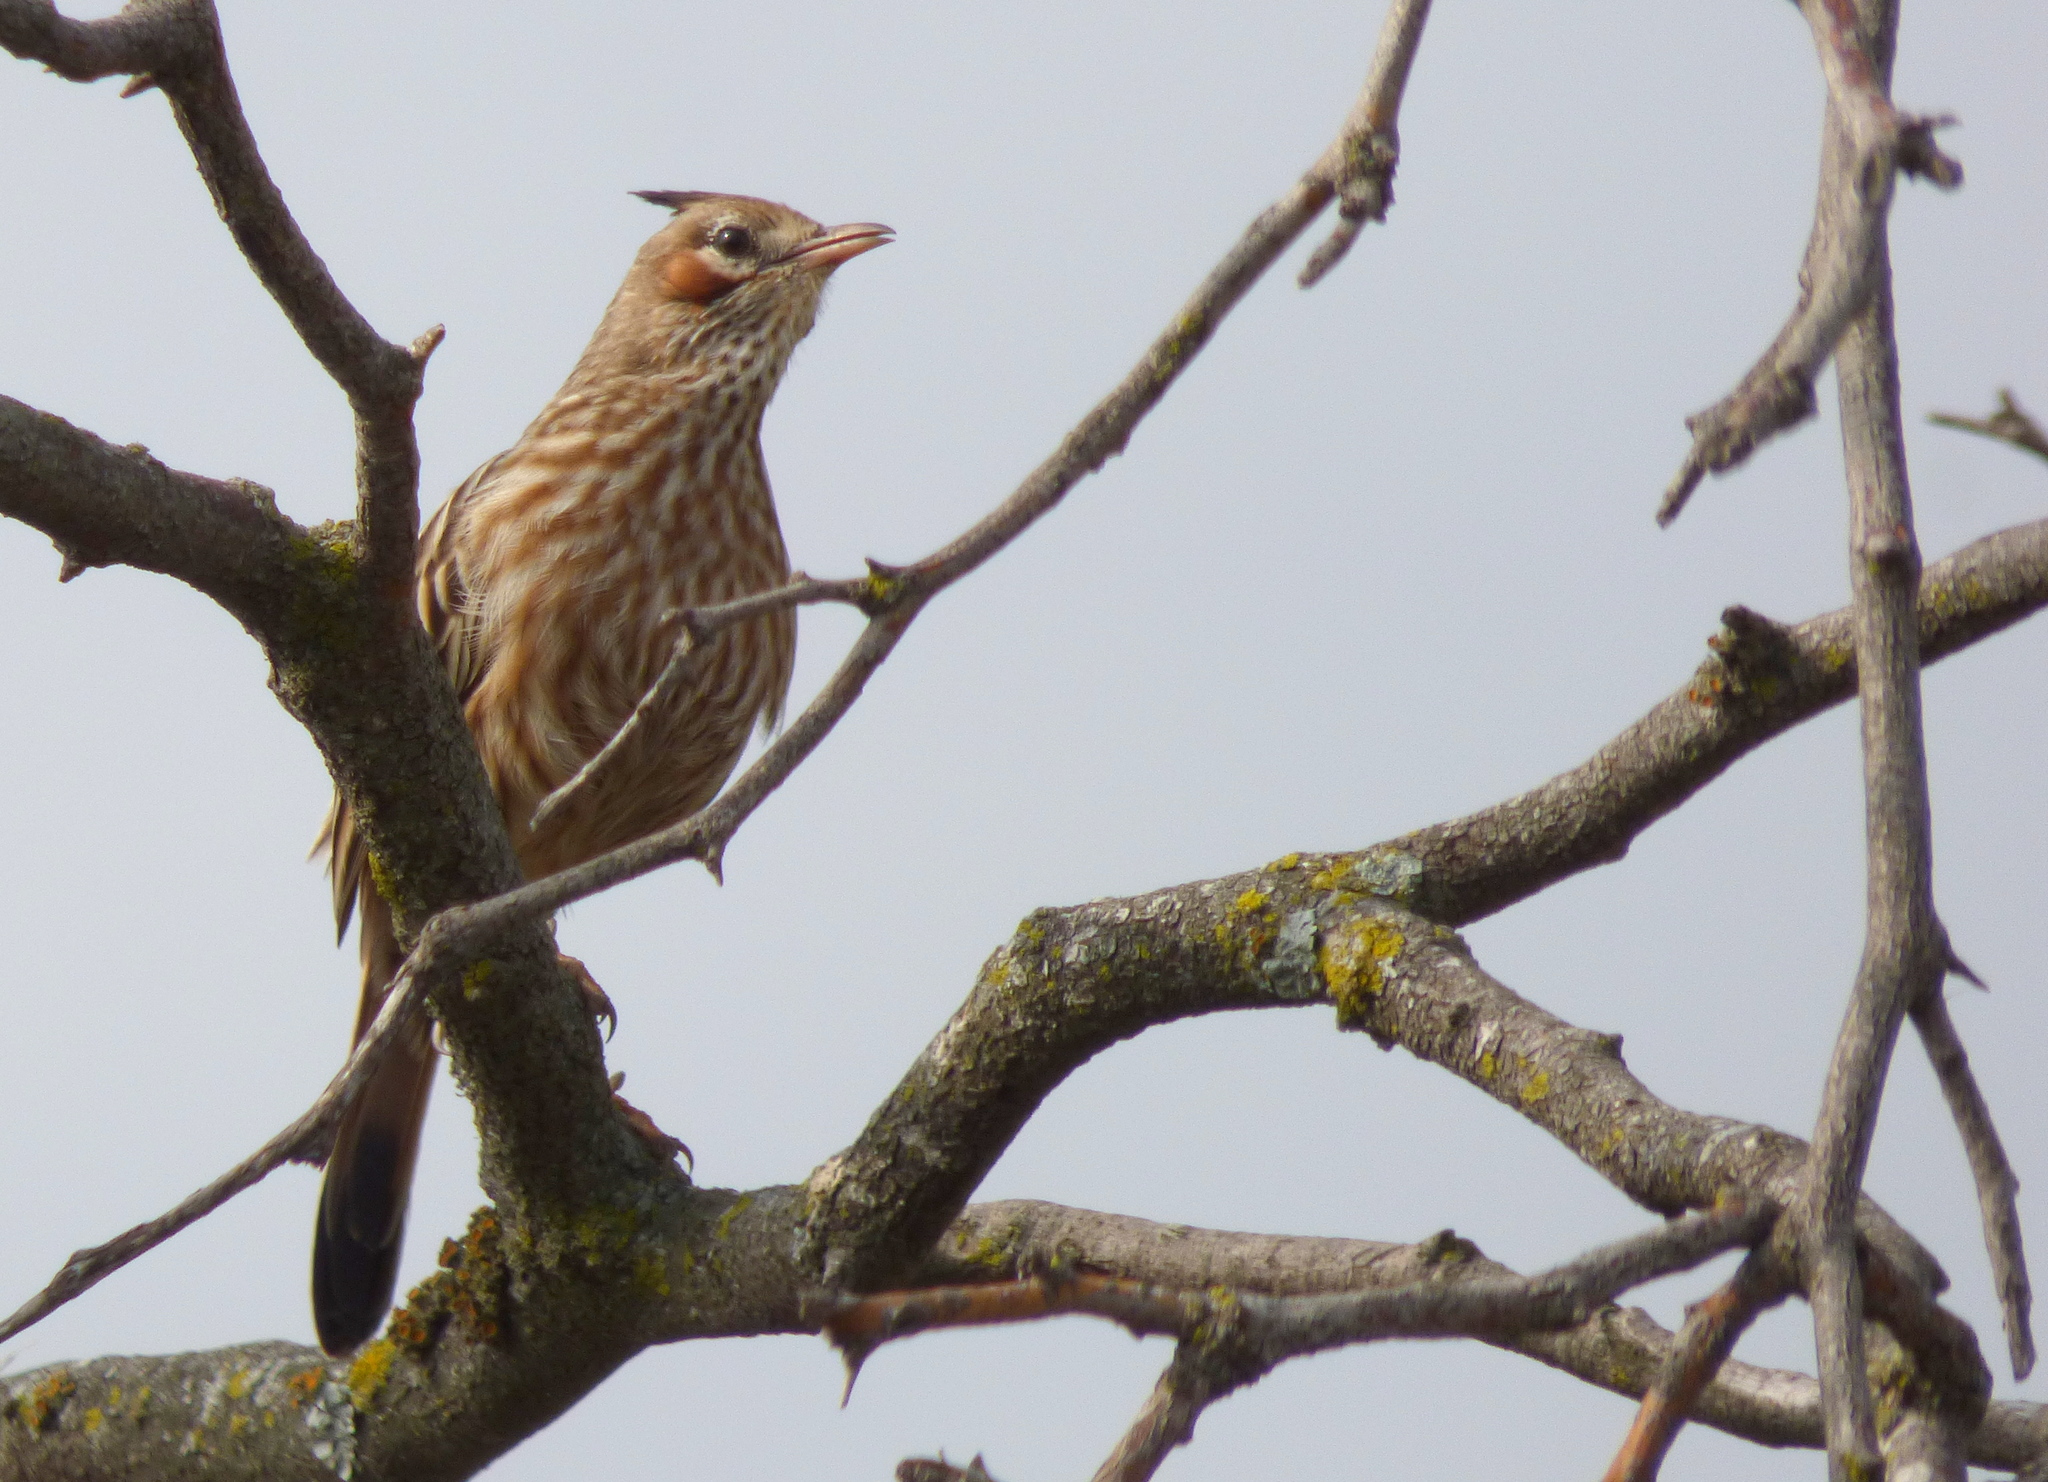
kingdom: Animalia
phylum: Chordata
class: Aves
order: Passeriformes
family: Furnariidae
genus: Coryphistera
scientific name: Coryphistera alaudina
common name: Lark-like brushrunner
